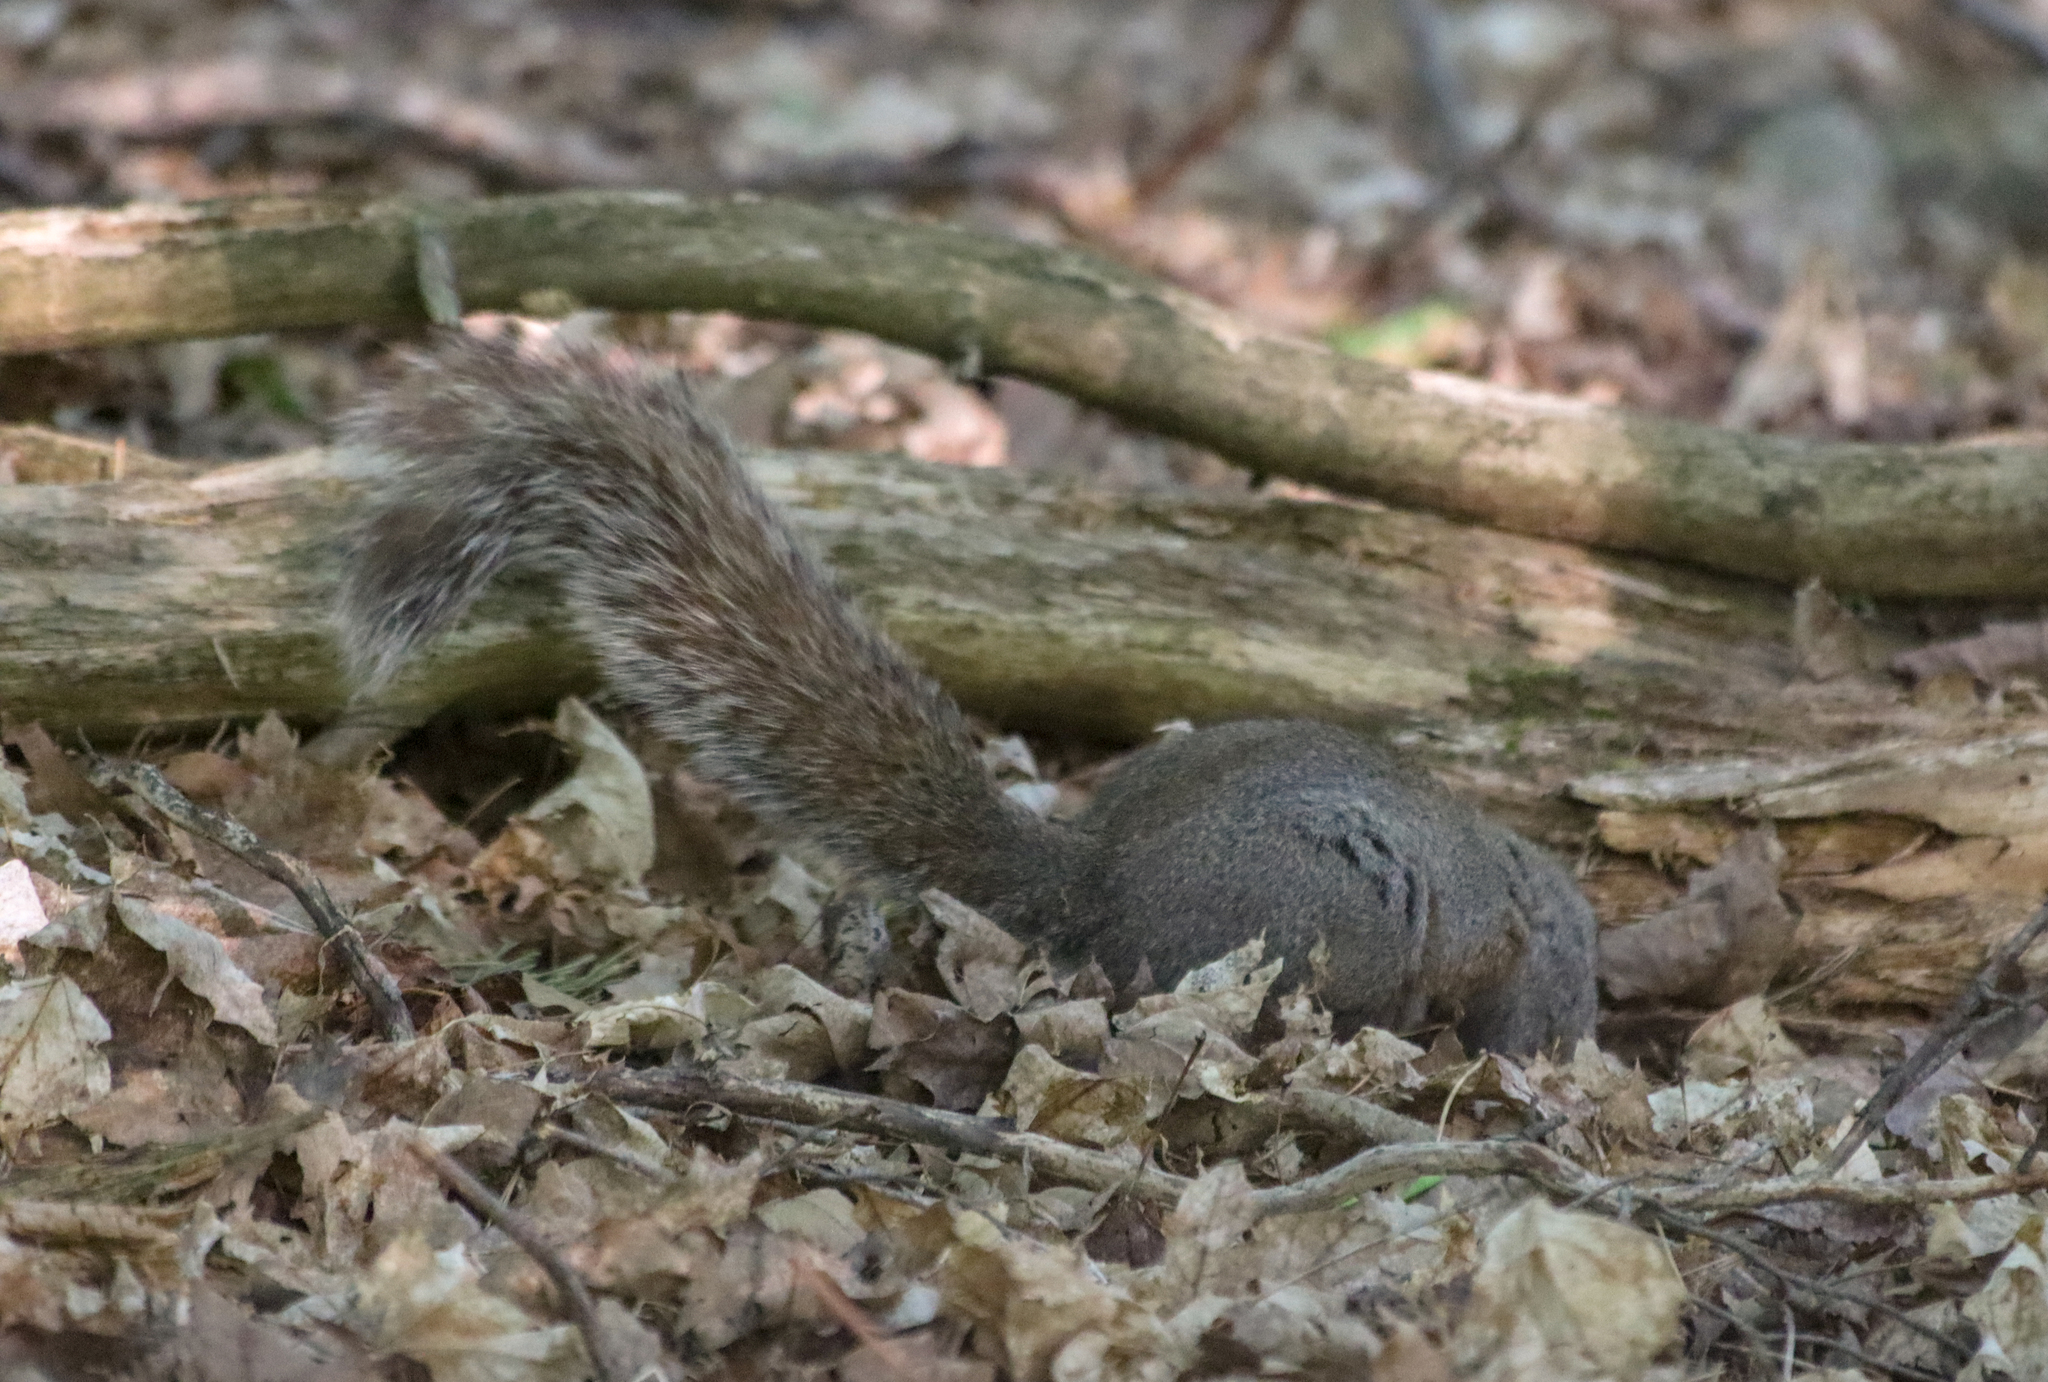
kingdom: Animalia
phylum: Chordata
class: Mammalia
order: Rodentia
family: Sciuridae
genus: Sciurus
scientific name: Sciurus carolinensis
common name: Eastern gray squirrel
